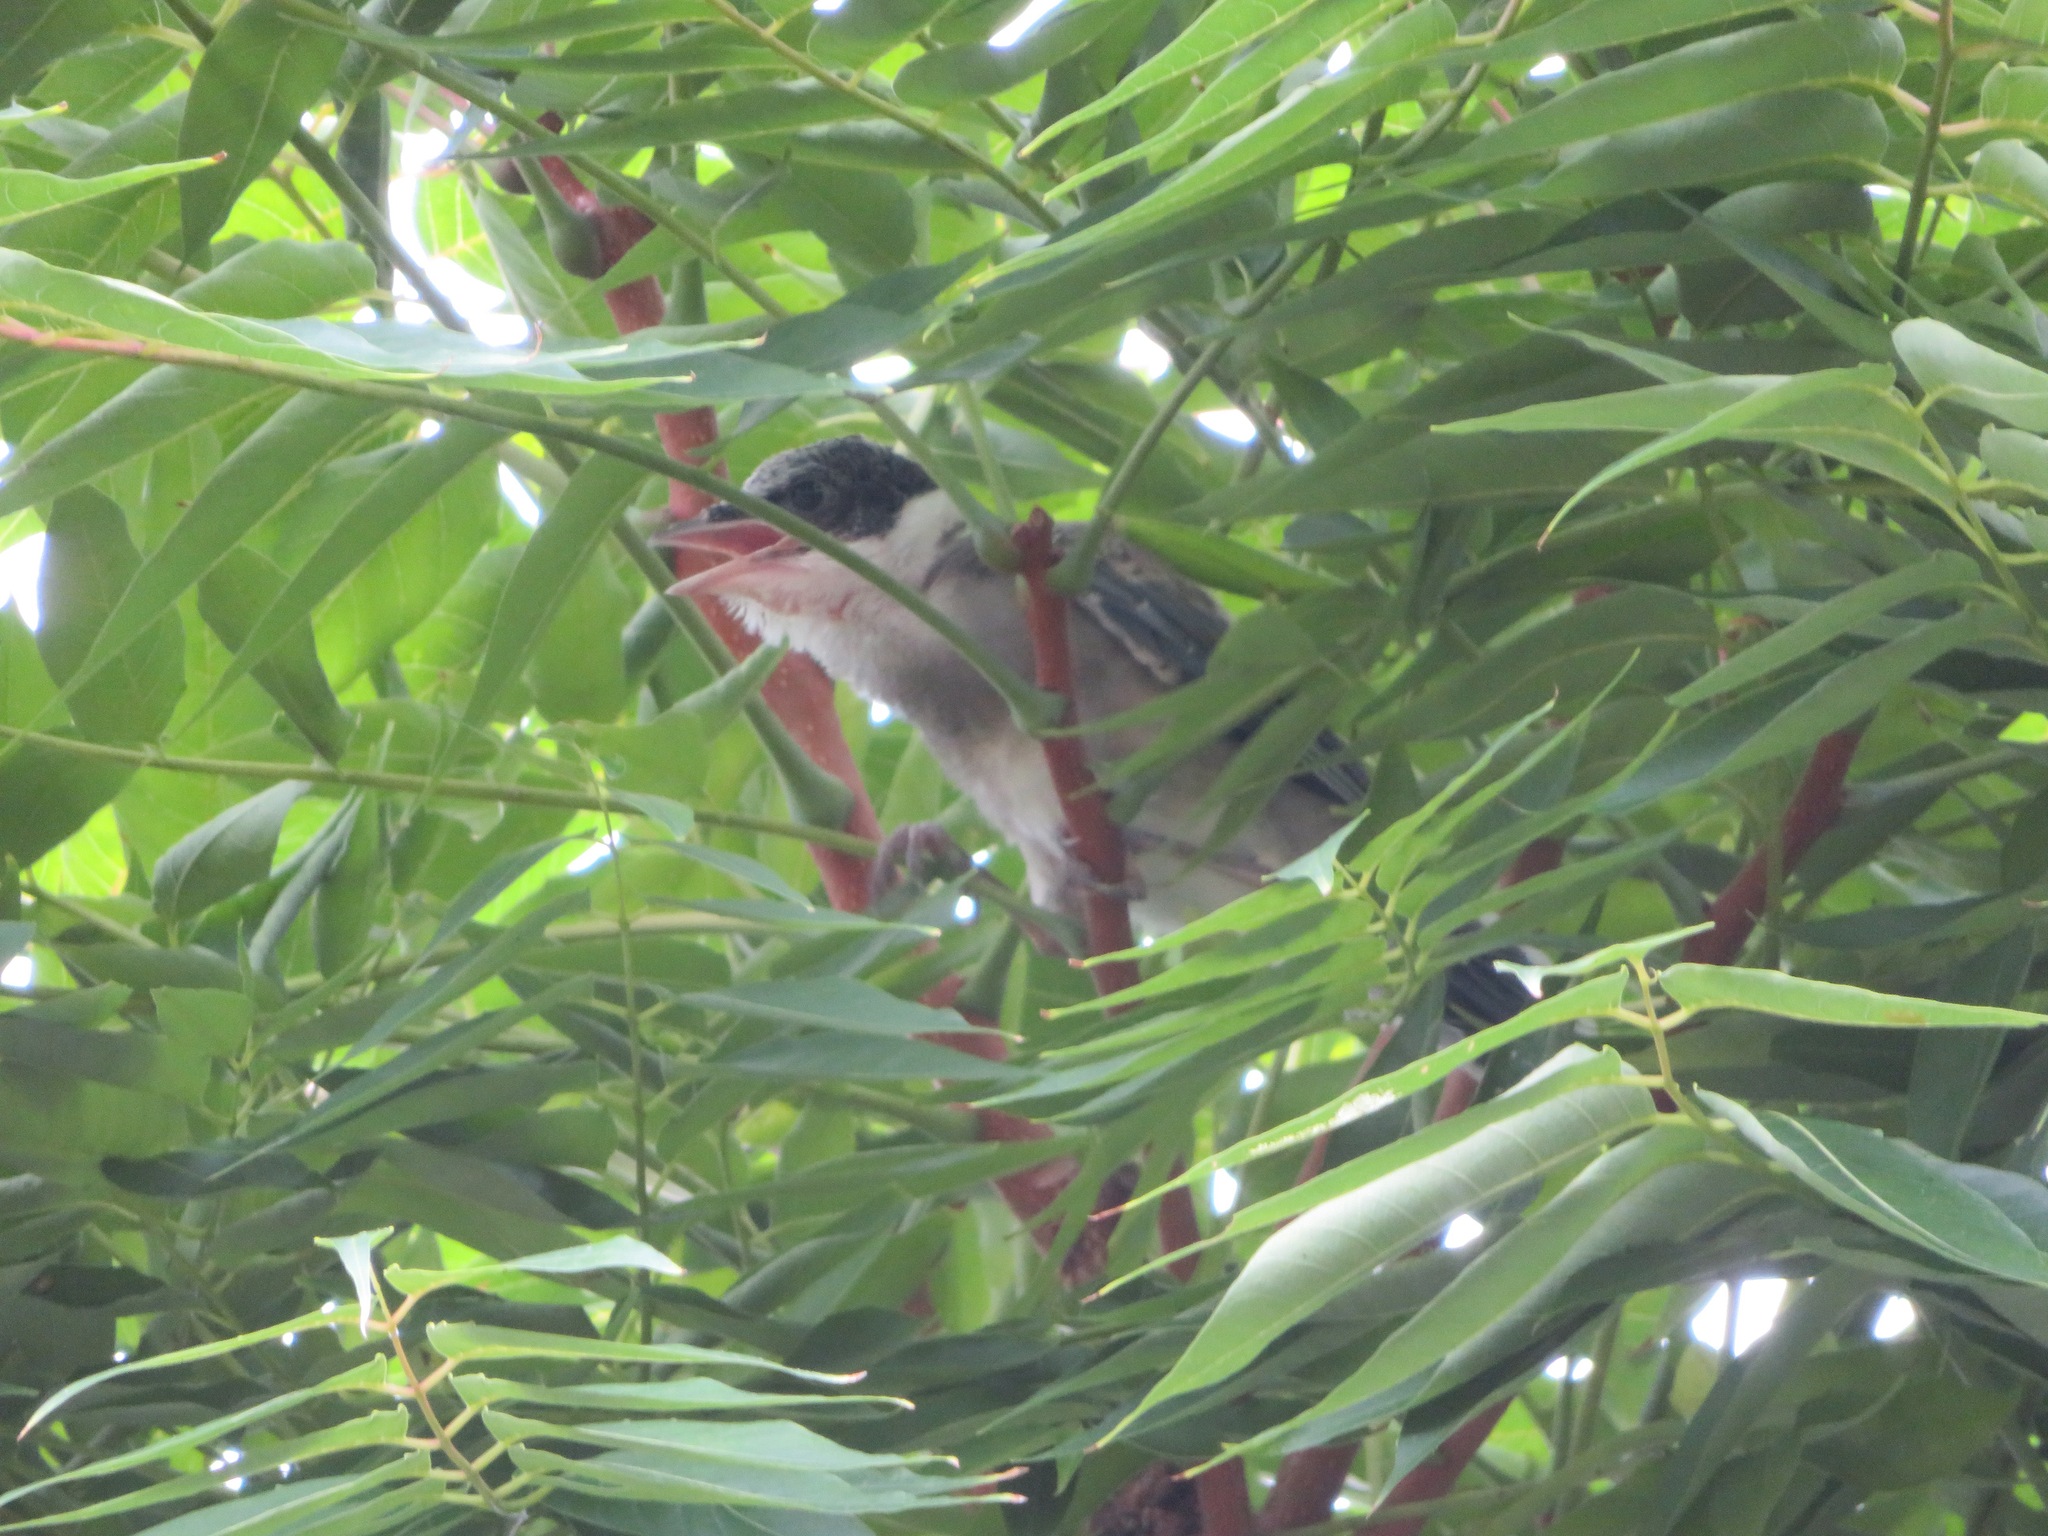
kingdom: Animalia
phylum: Chordata
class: Aves
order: Passeriformes
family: Corvidae
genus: Cyanopica
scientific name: Cyanopica cyanus
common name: Azure-winged magpie
